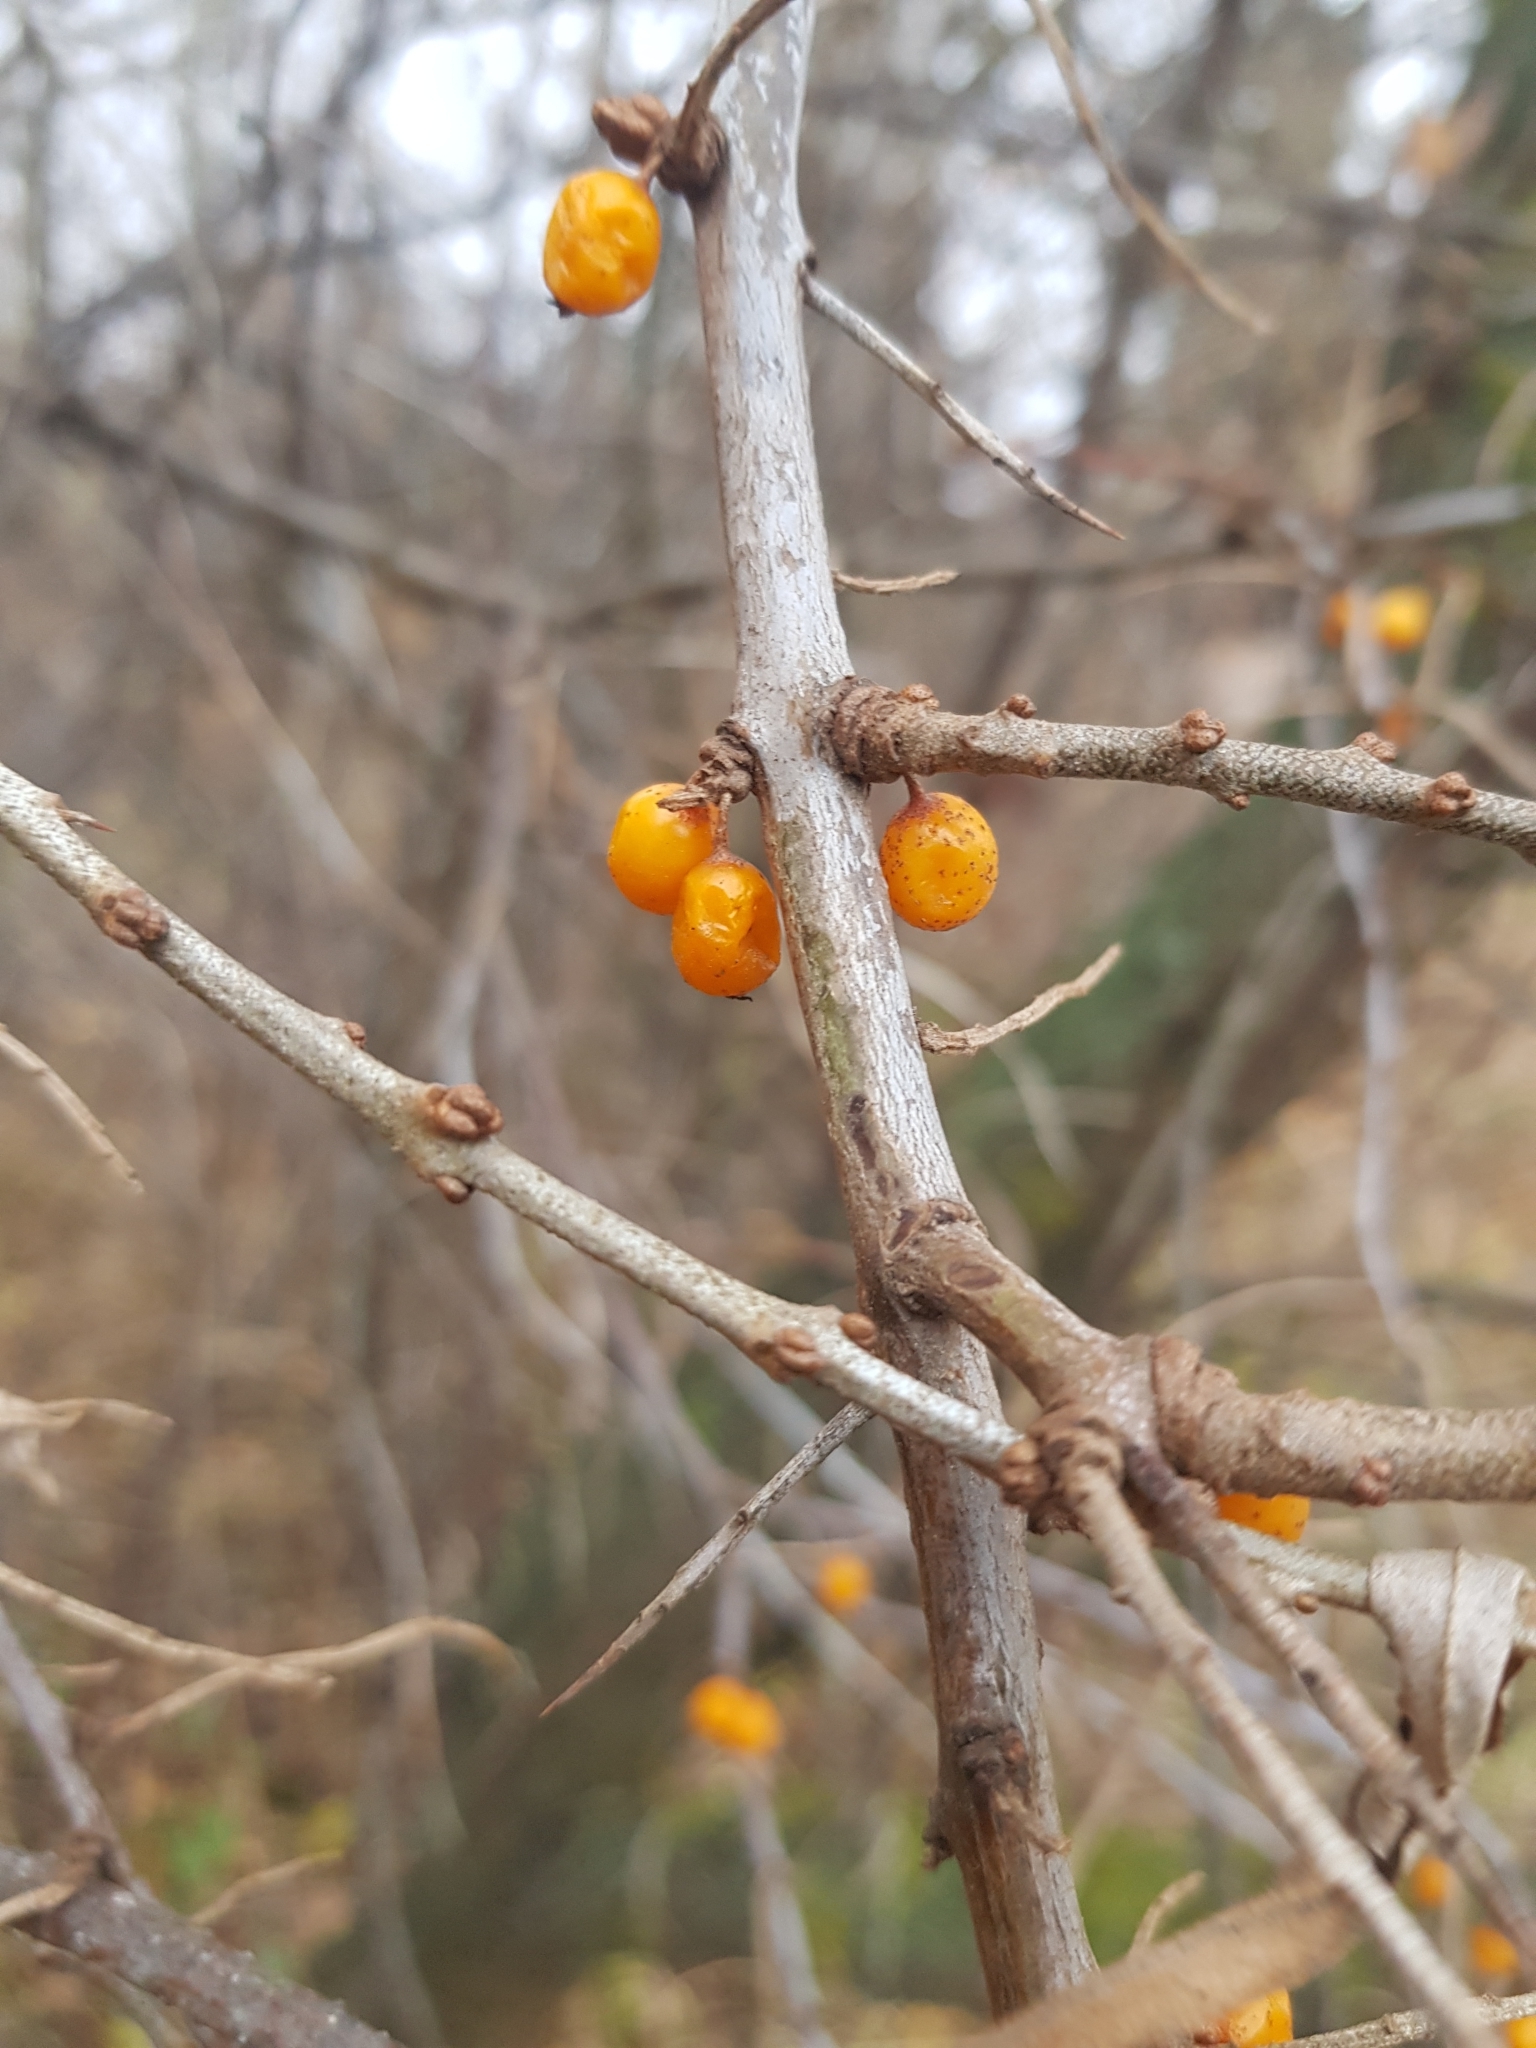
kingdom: Plantae
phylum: Tracheophyta
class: Magnoliopsida
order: Rosales
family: Elaeagnaceae
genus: Hippophae
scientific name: Hippophae rhamnoides
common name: Sea-buckthorn
